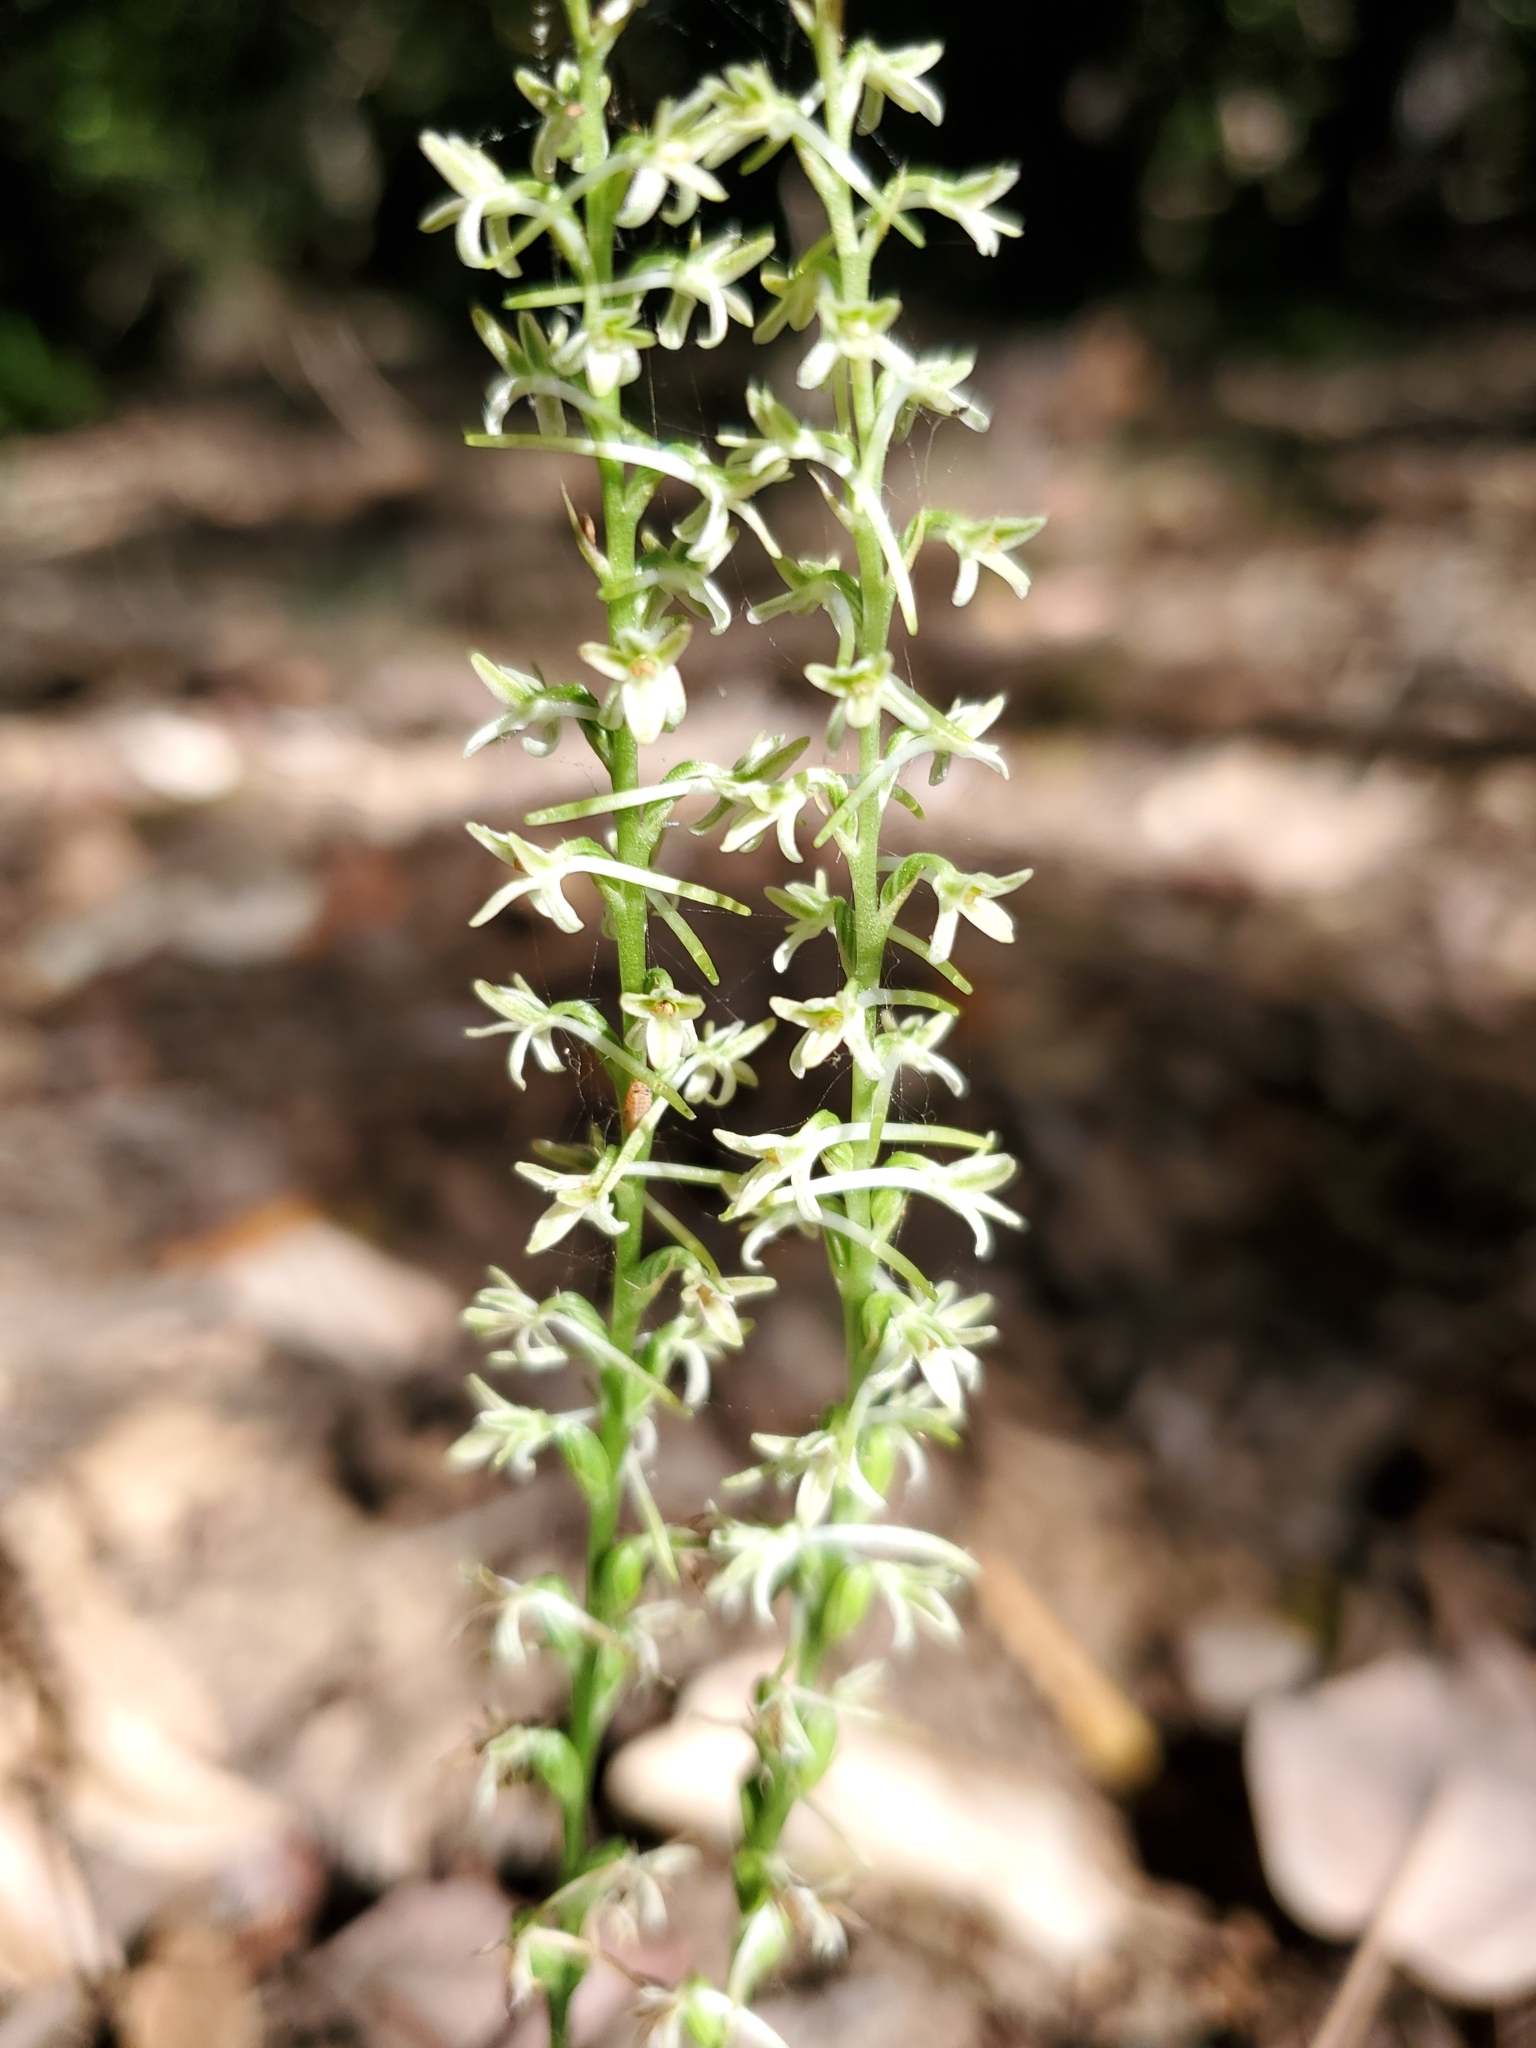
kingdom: Plantae
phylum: Tracheophyta
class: Liliopsida
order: Asparagales
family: Orchidaceae
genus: Platanthera
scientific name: Platanthera transversa
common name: Royal rein orchid
